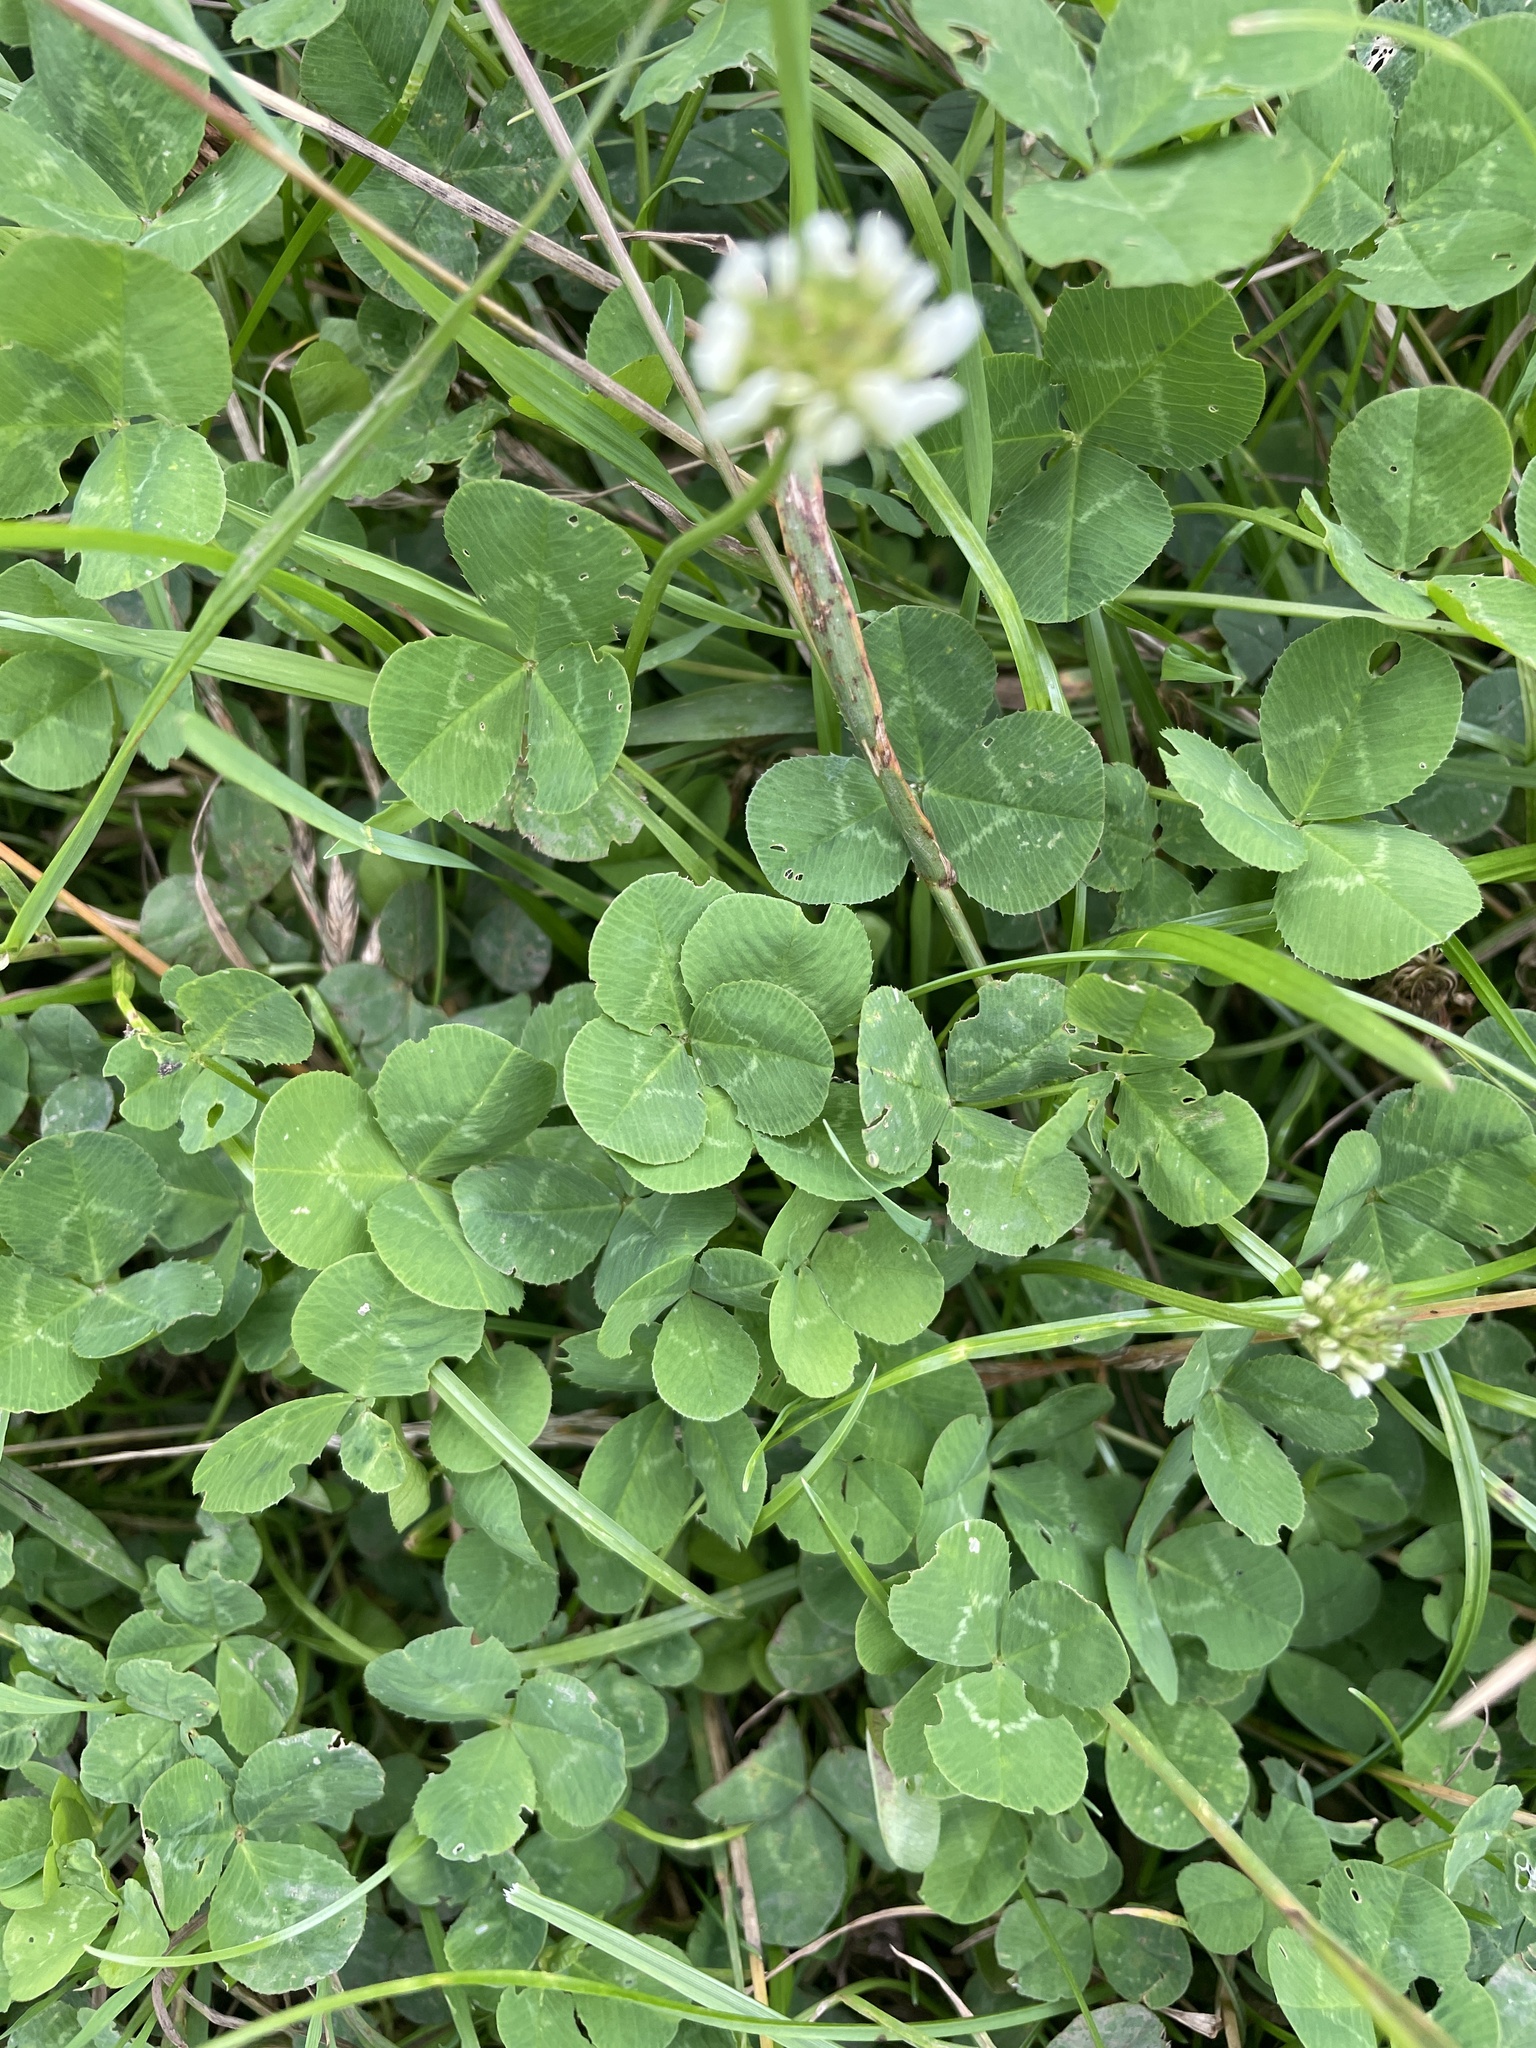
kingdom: Plantae
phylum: Tracheophyta
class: Magnoliopsida
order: Fabales
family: Fabaceae
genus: Trifolium
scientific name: Trifolium repens
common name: White clover
